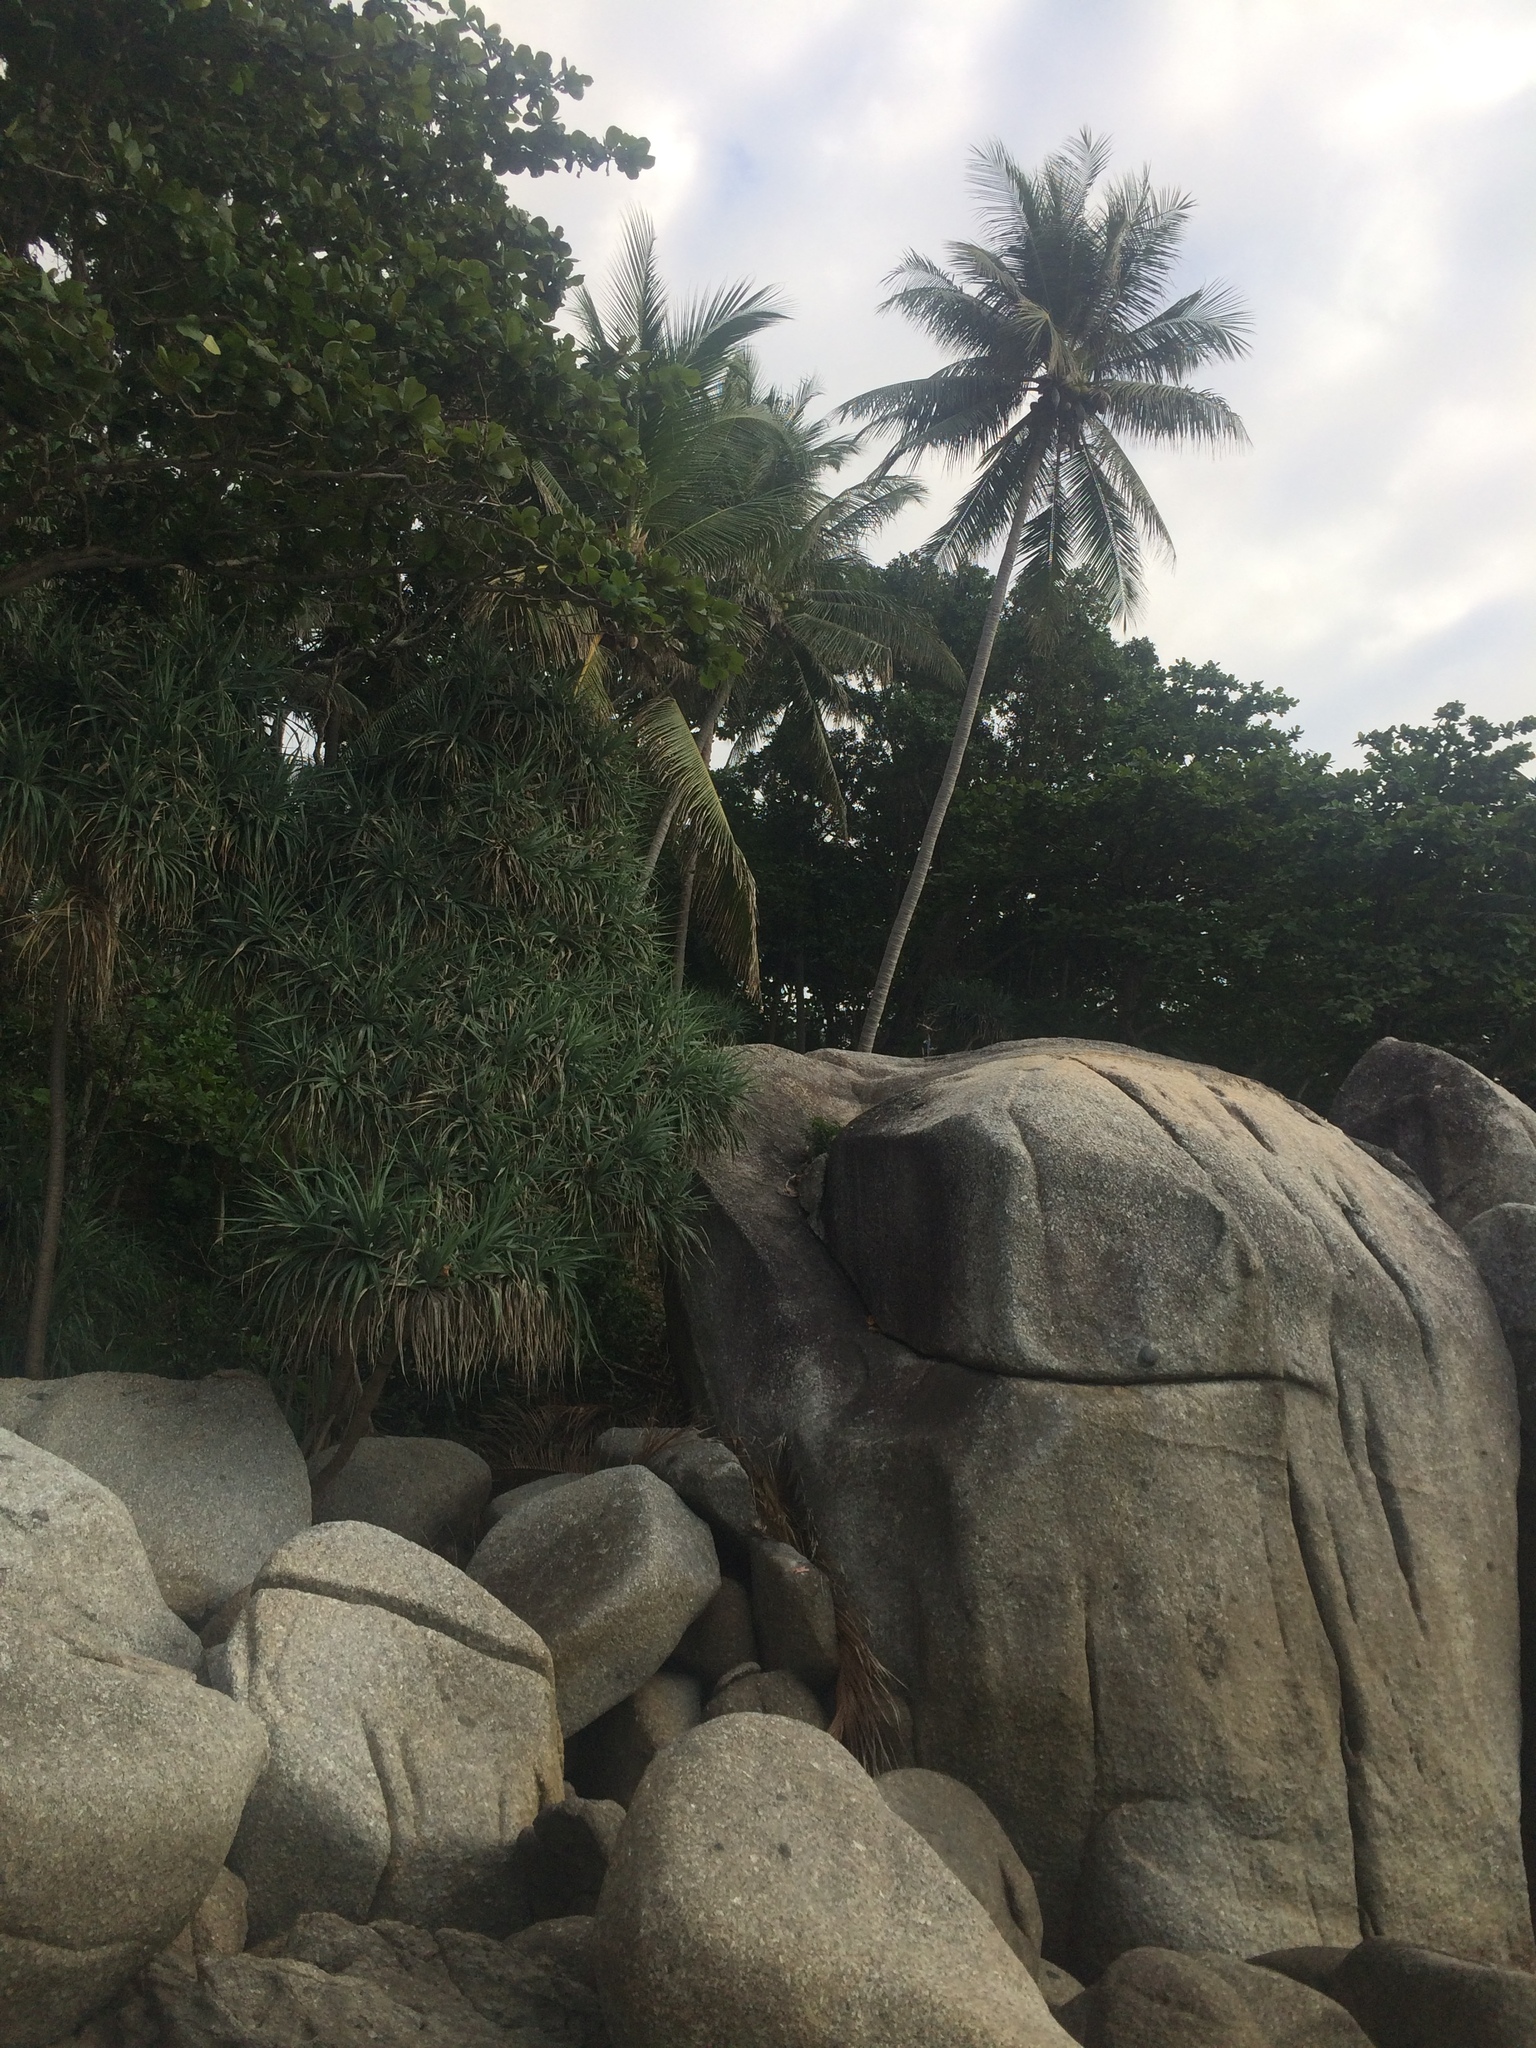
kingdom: Plantae
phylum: Tracheophyta
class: Liliopsida
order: Arecales
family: Arecaceae
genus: Cocos
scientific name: Cocos nucifera
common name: Coconut palm
